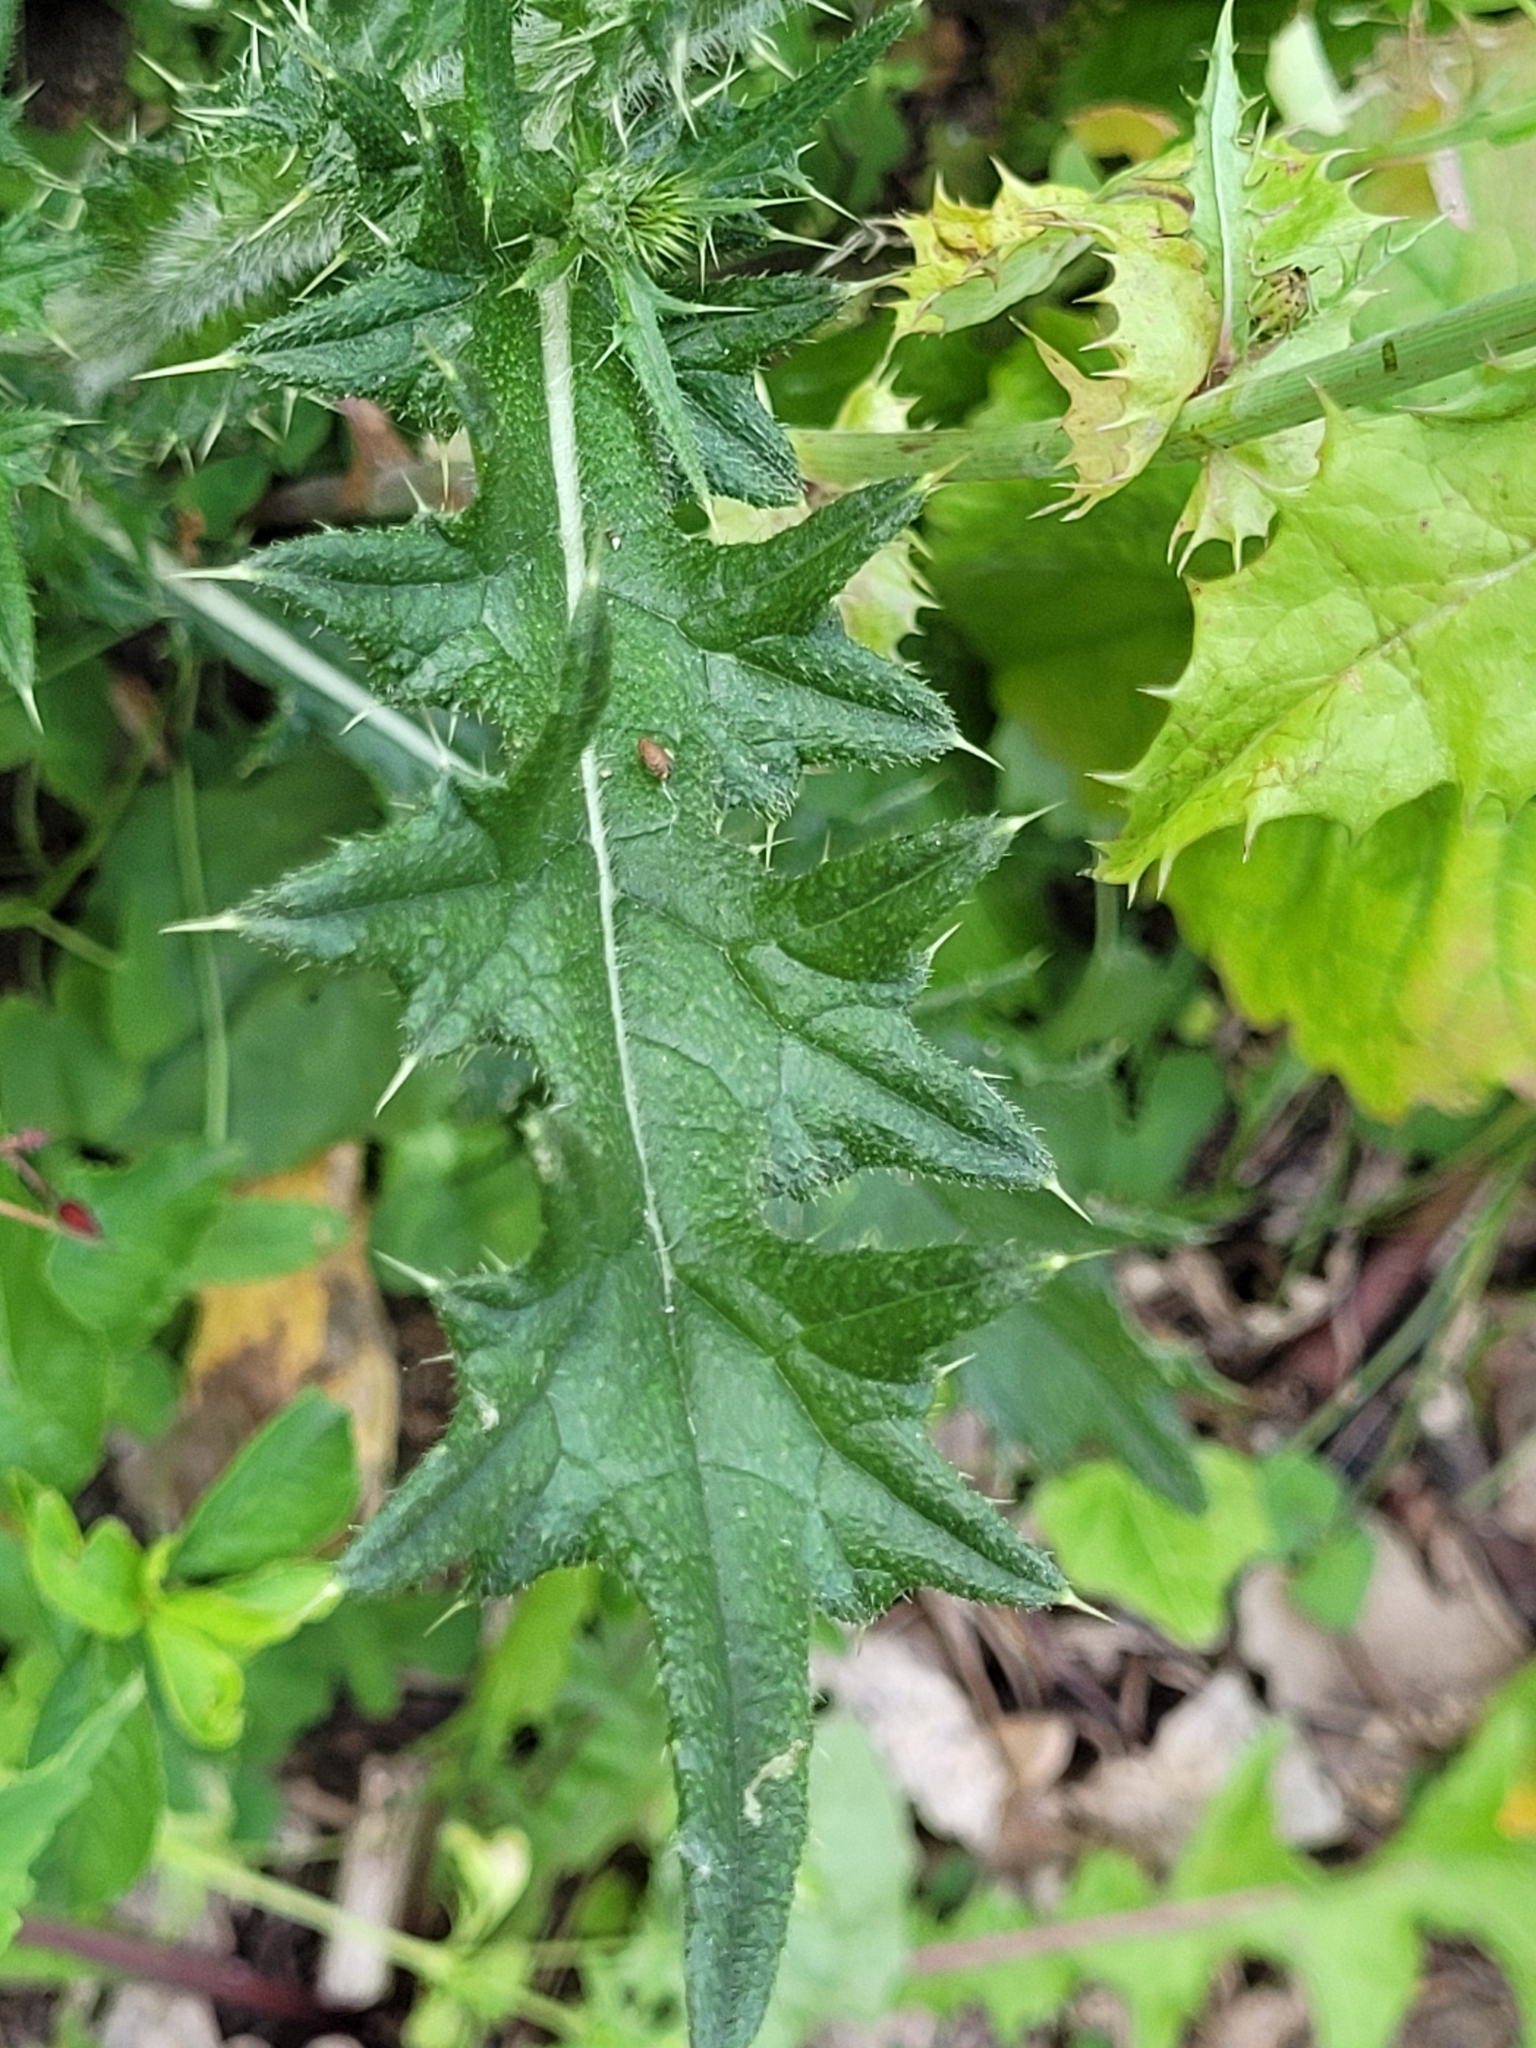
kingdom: Plantae
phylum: Tracheophyta
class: Magnoliopsida
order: Asterales
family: Asteraceae
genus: Cirsium
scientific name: Cirsium vulgare
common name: Bull thistle
